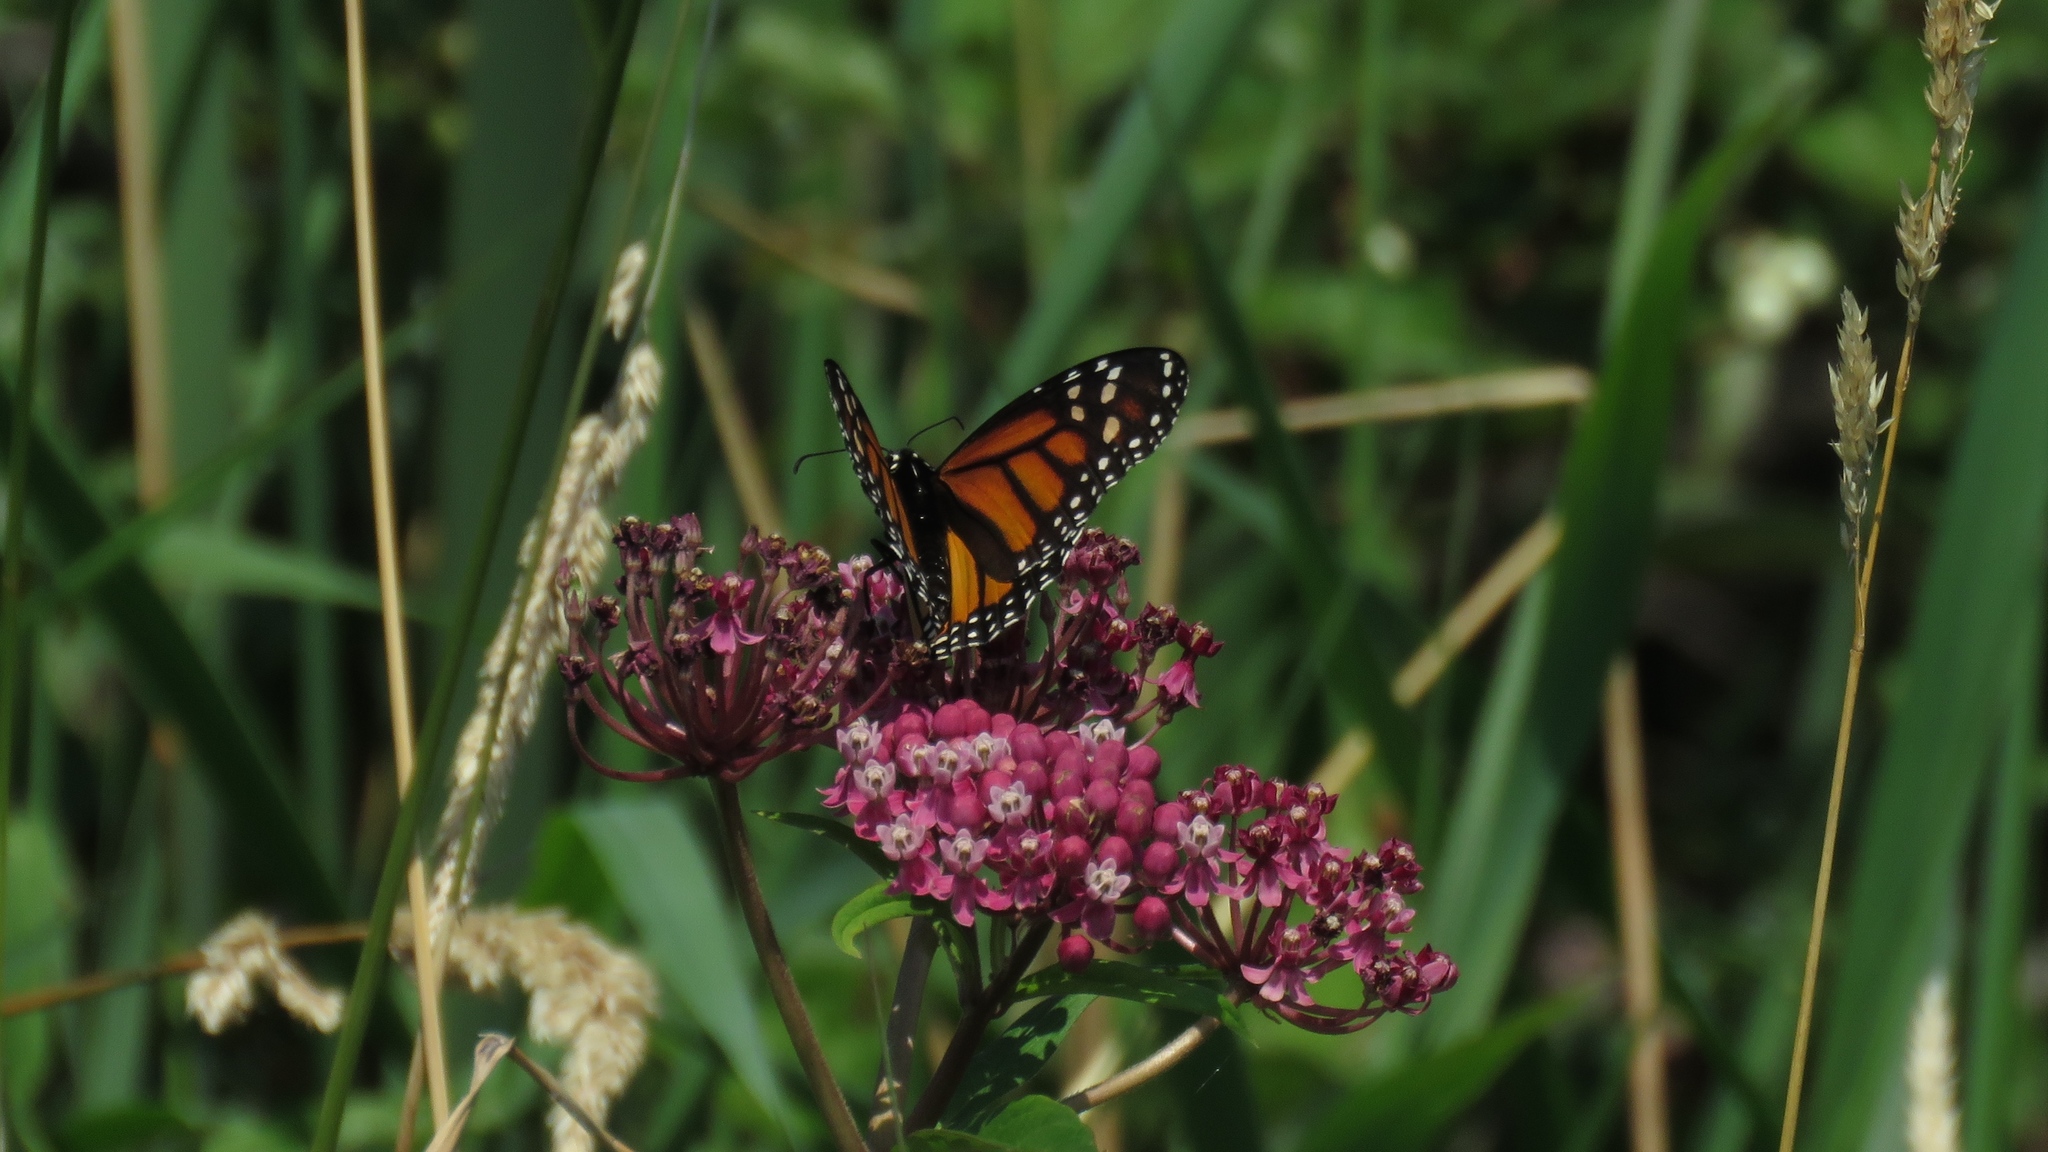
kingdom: Animalia
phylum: Arthropoda
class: Insecta
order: Lepidoptera
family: Nymphalidae
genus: Danaus
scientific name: Danaus plexippus
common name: Monarch
